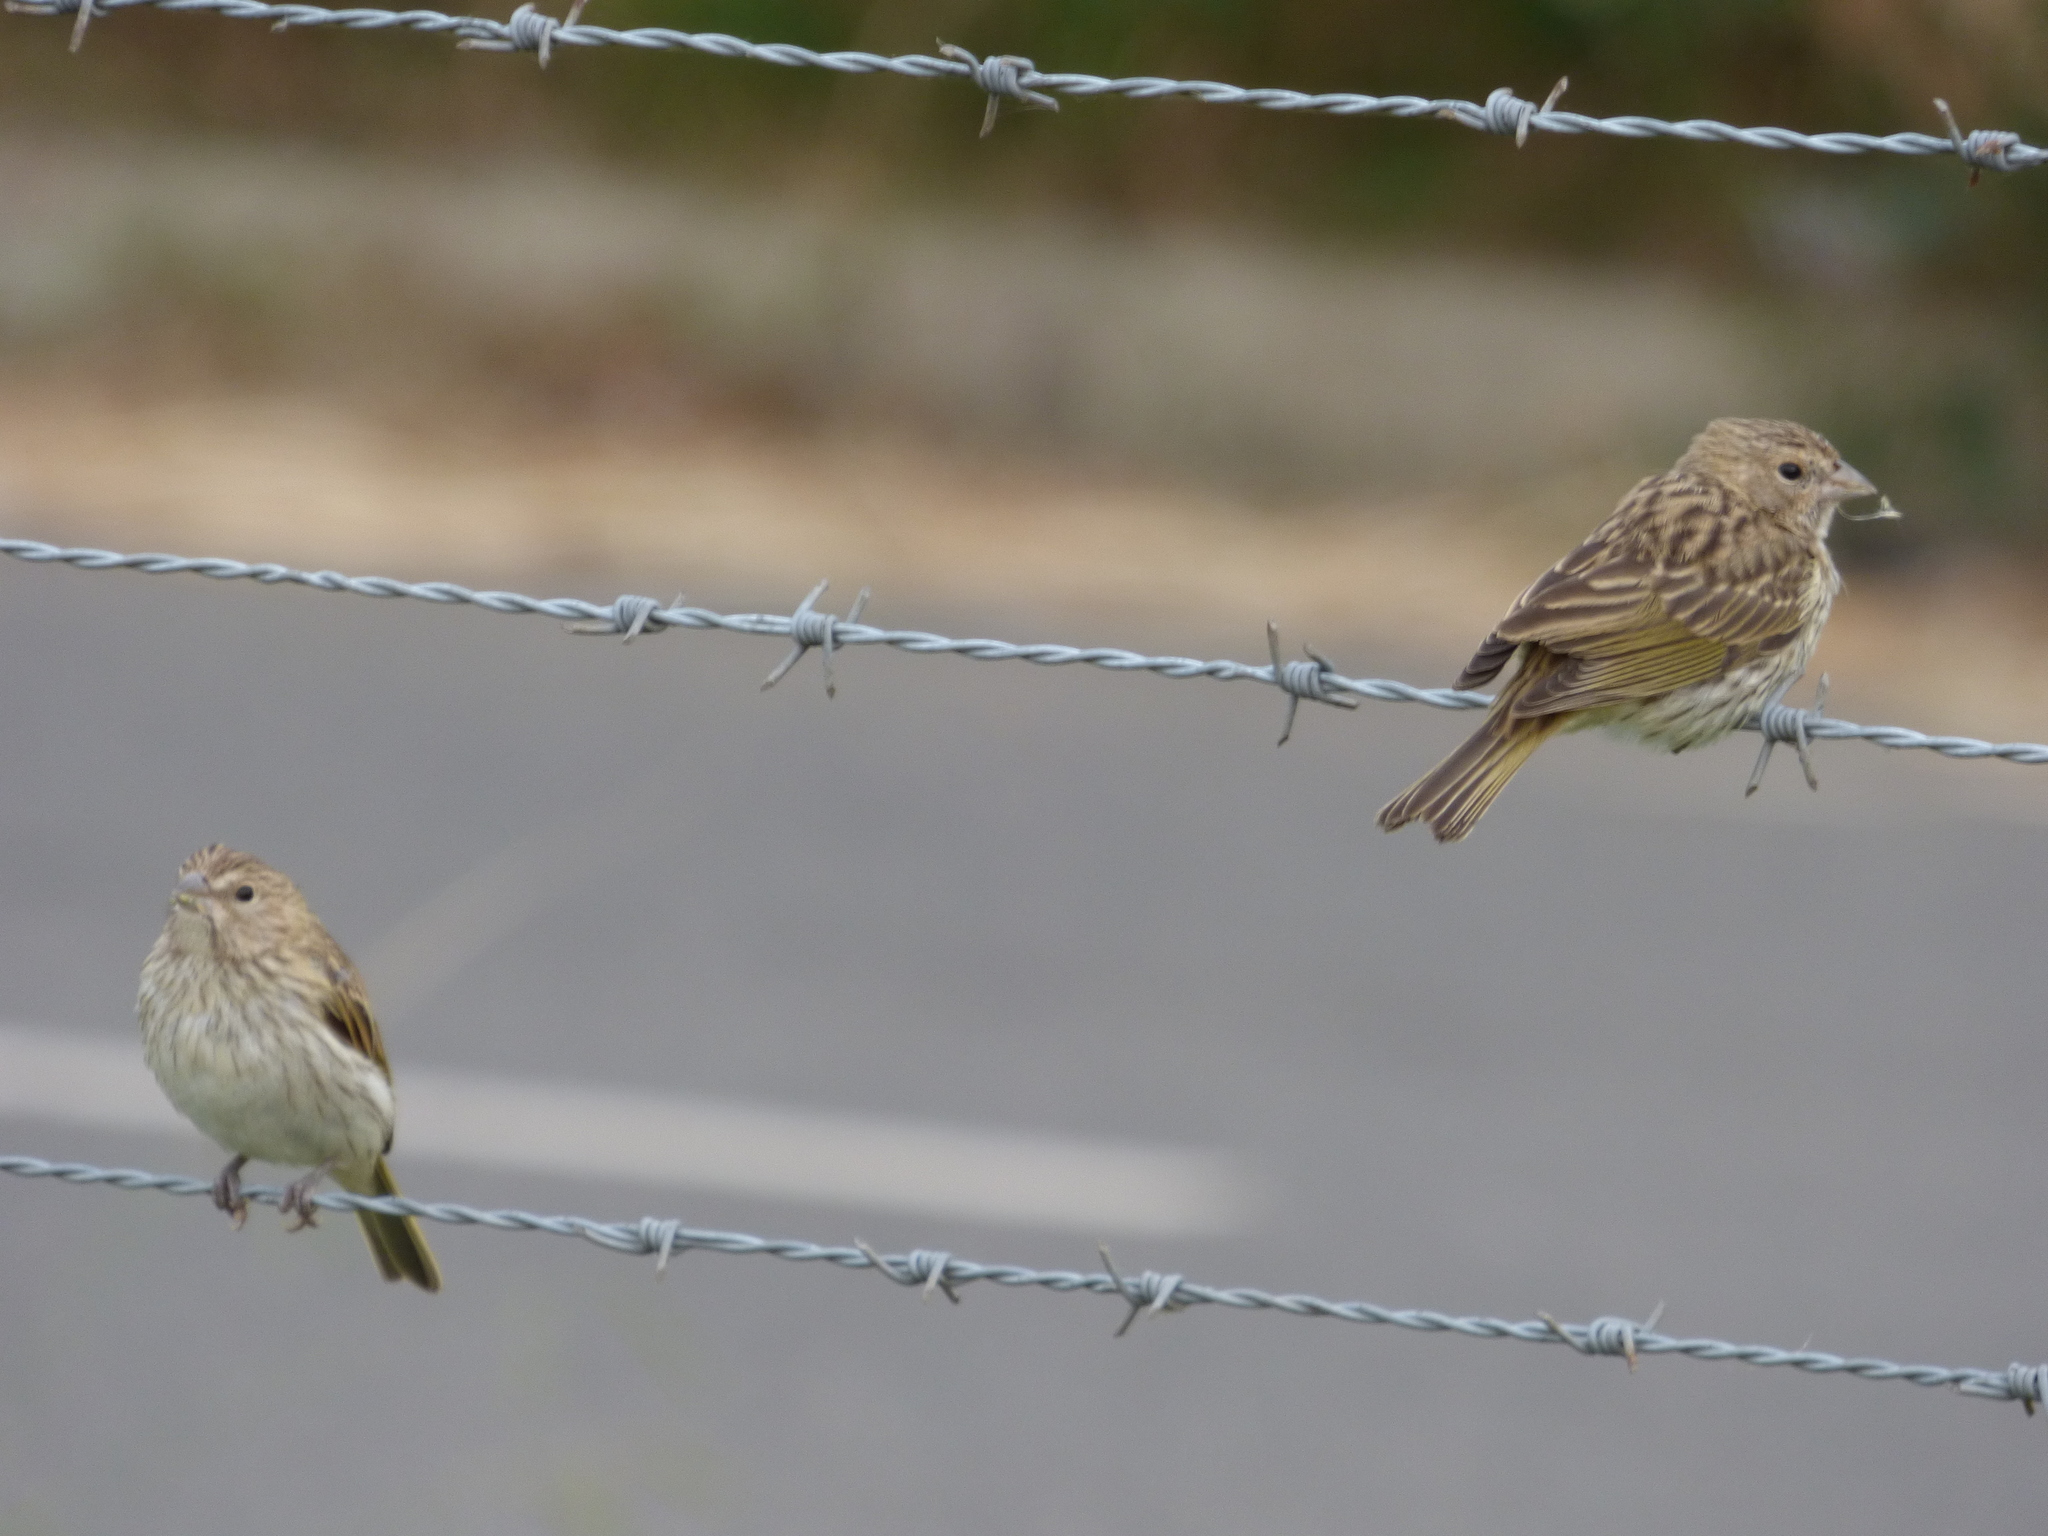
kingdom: Animalia
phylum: Chordata
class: Aves
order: Passeriformes
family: Thraupidae
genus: Sicalis
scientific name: Sicalis flaveola
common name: Saffron finch
